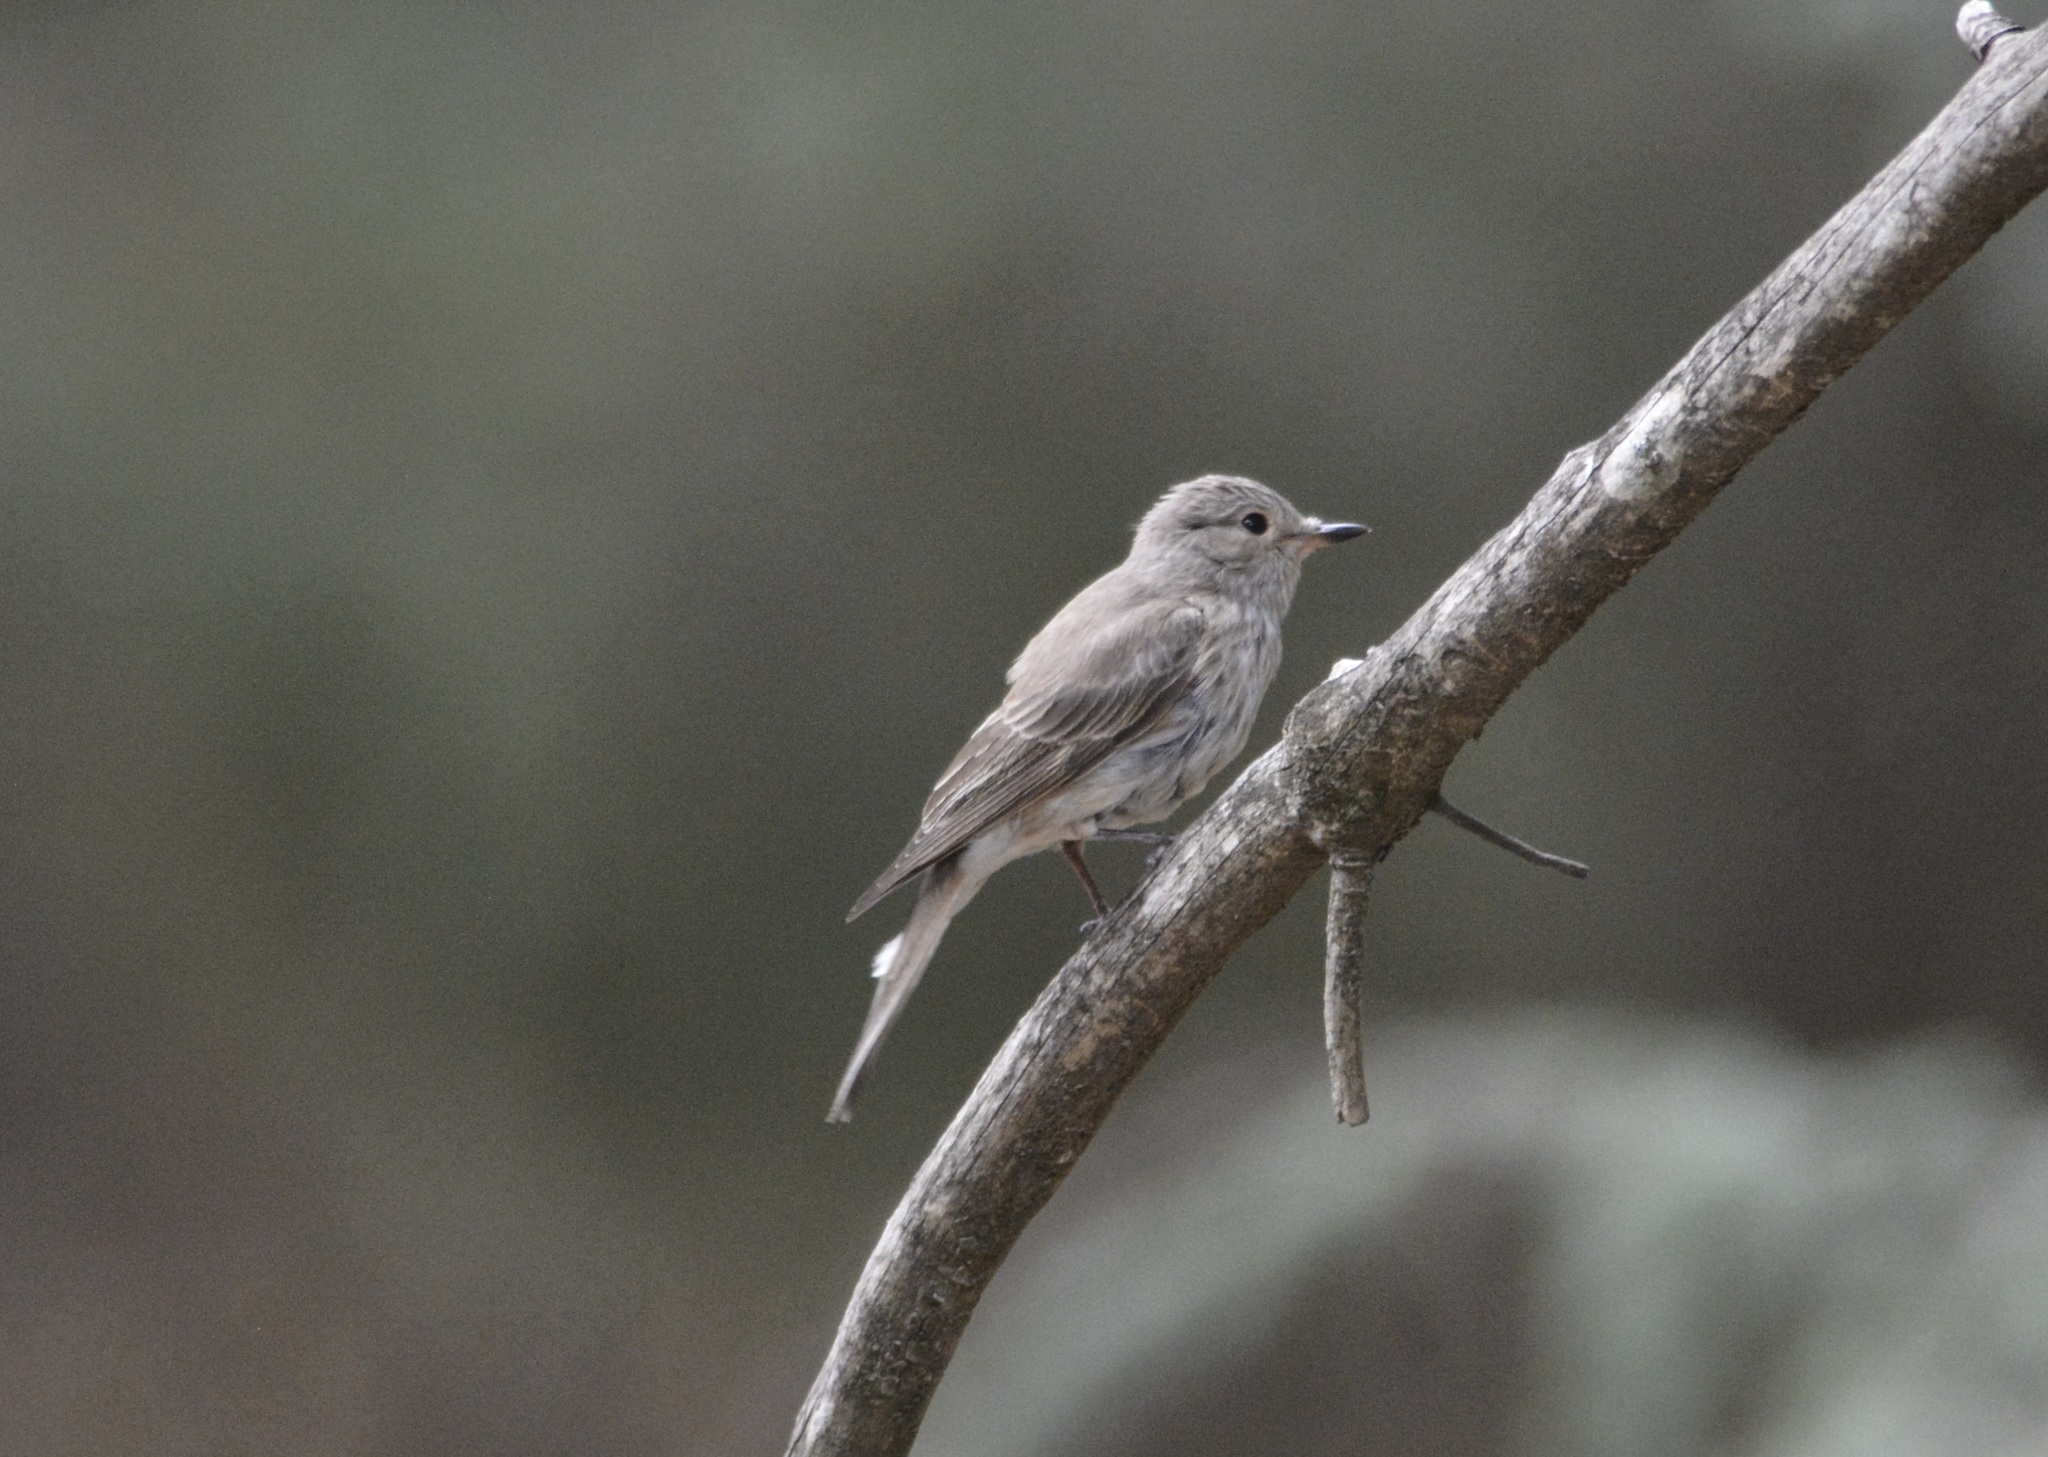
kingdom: Animalia
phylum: Chordata
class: Aves
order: Passeriformes
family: Muscicapidae
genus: Muscicapa
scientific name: Muscicapa striata
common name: Spotted flycatcher
